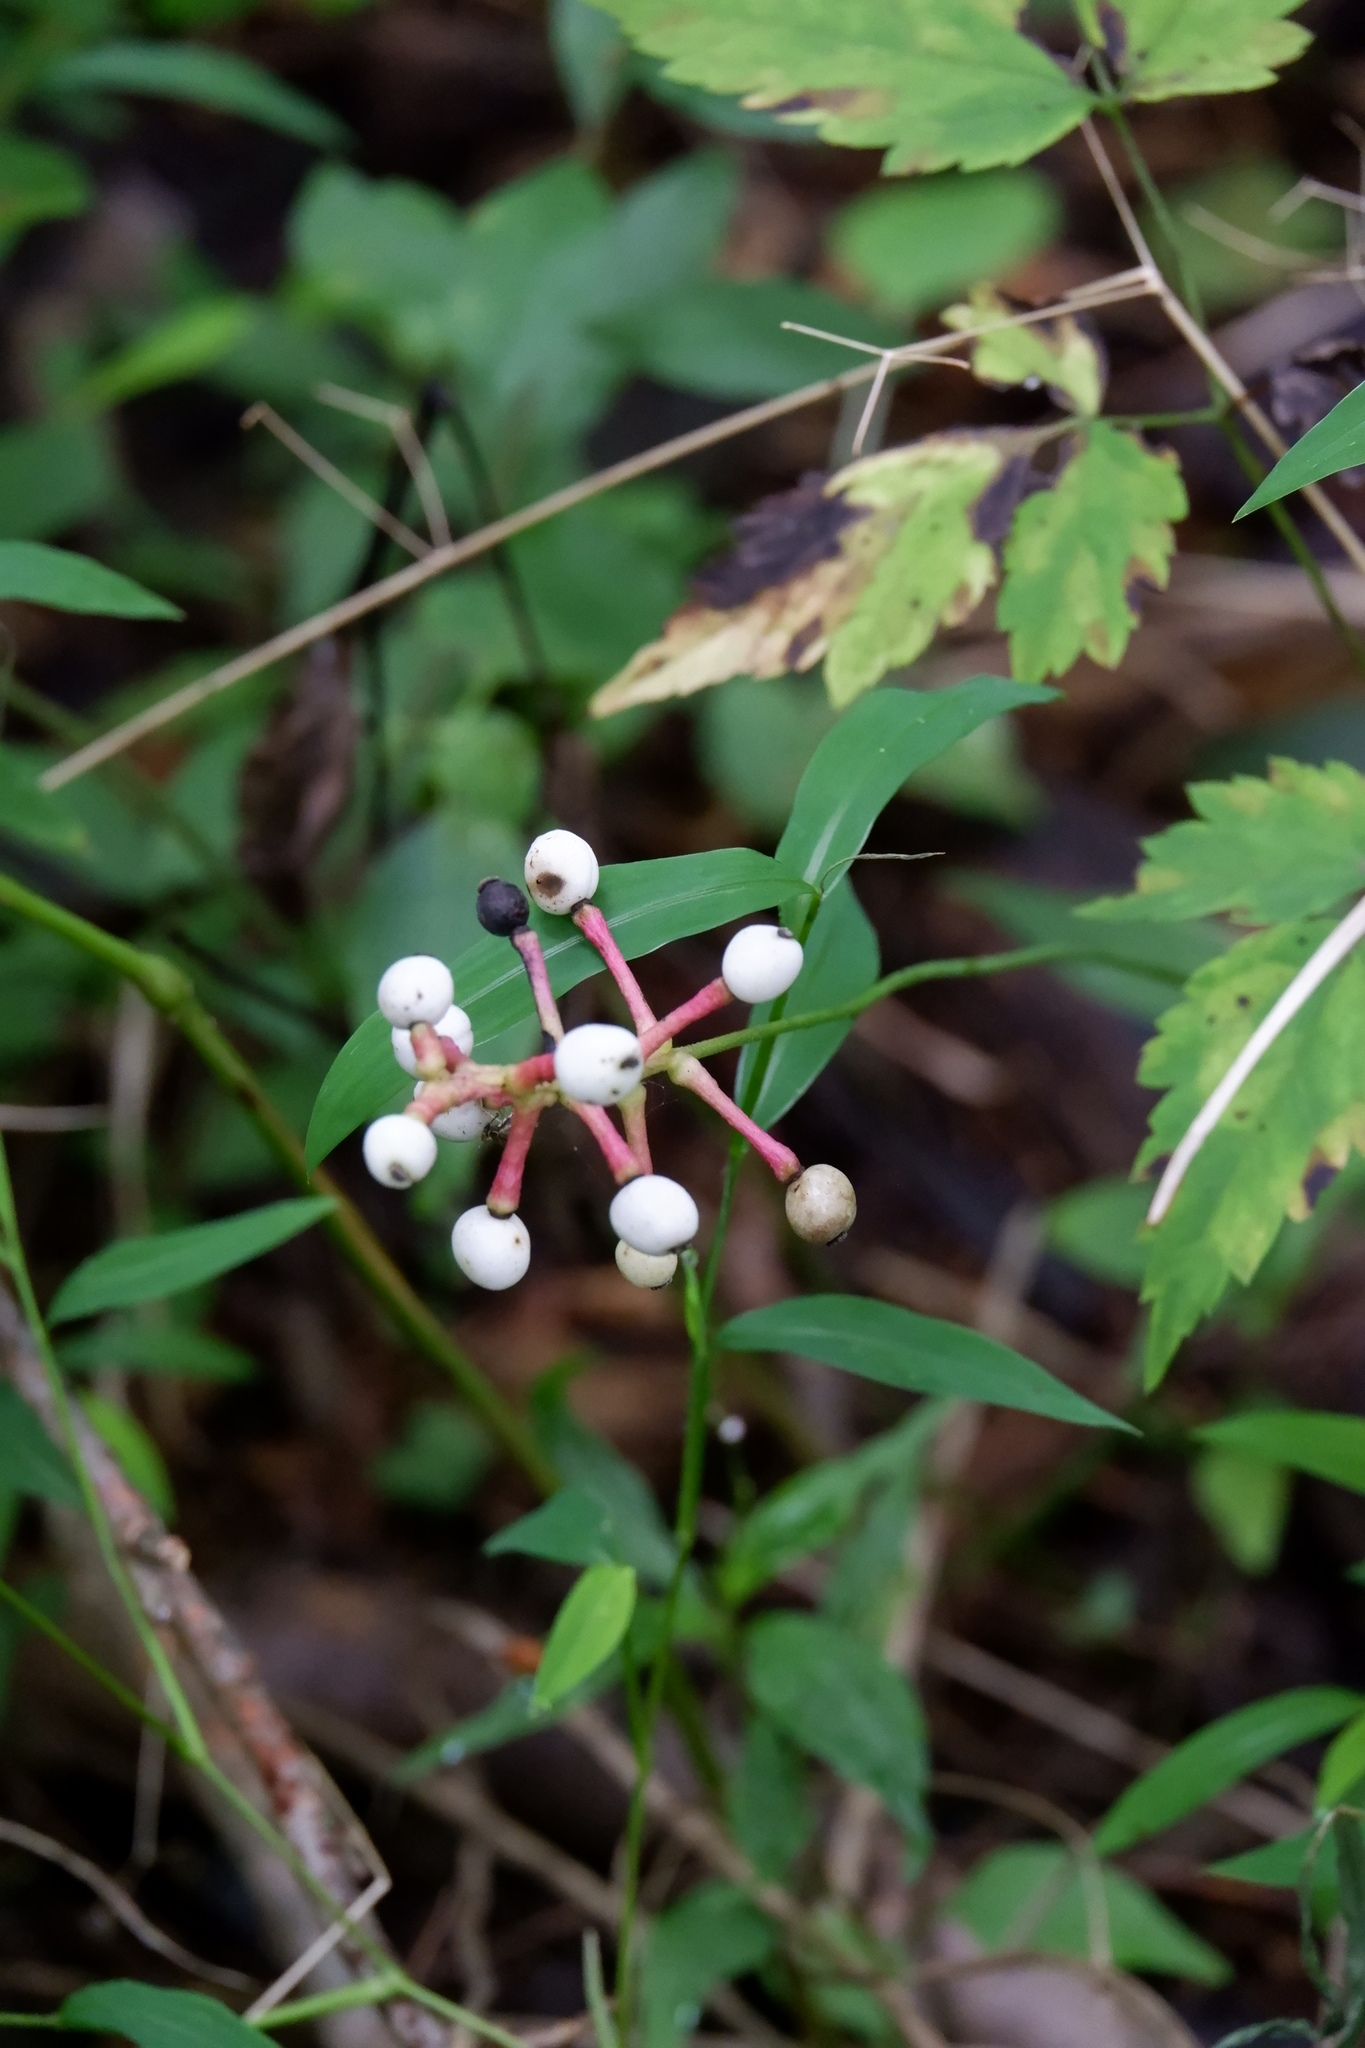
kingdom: Plantae
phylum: Tracheophyta
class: Magnoliopsida
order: Ranunculales
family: Ranunculaceae
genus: Actaea
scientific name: Actaea pachypoda
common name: Doll's-eyes
